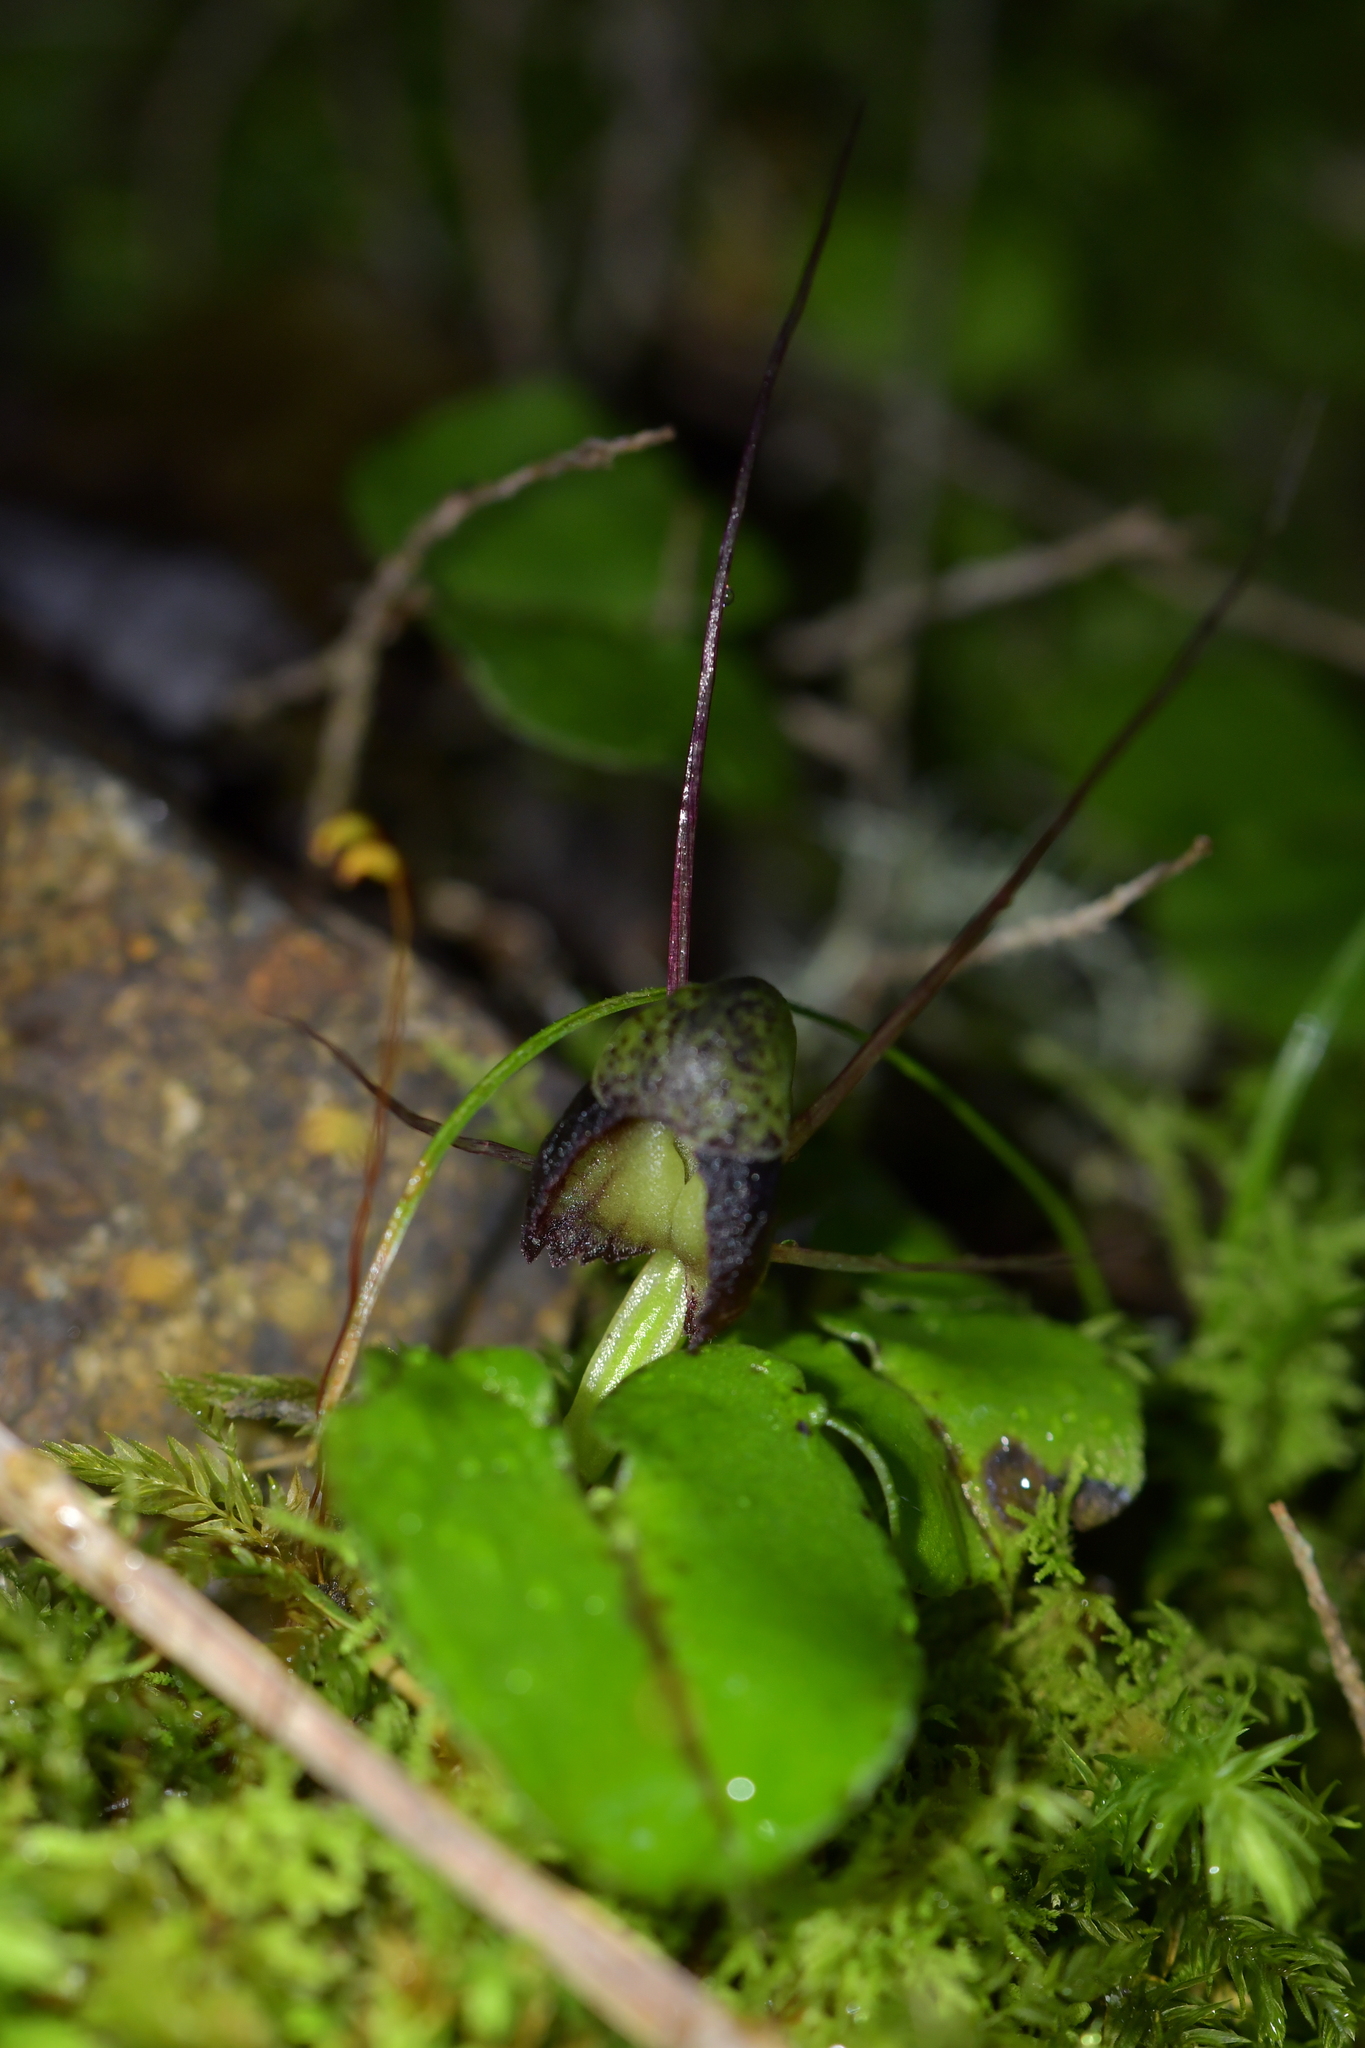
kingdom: Plantae
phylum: Tracheophyta
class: Liliopsida
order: Asparagales
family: Orchidaceae
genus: Corybas
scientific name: Corybas vitreus
